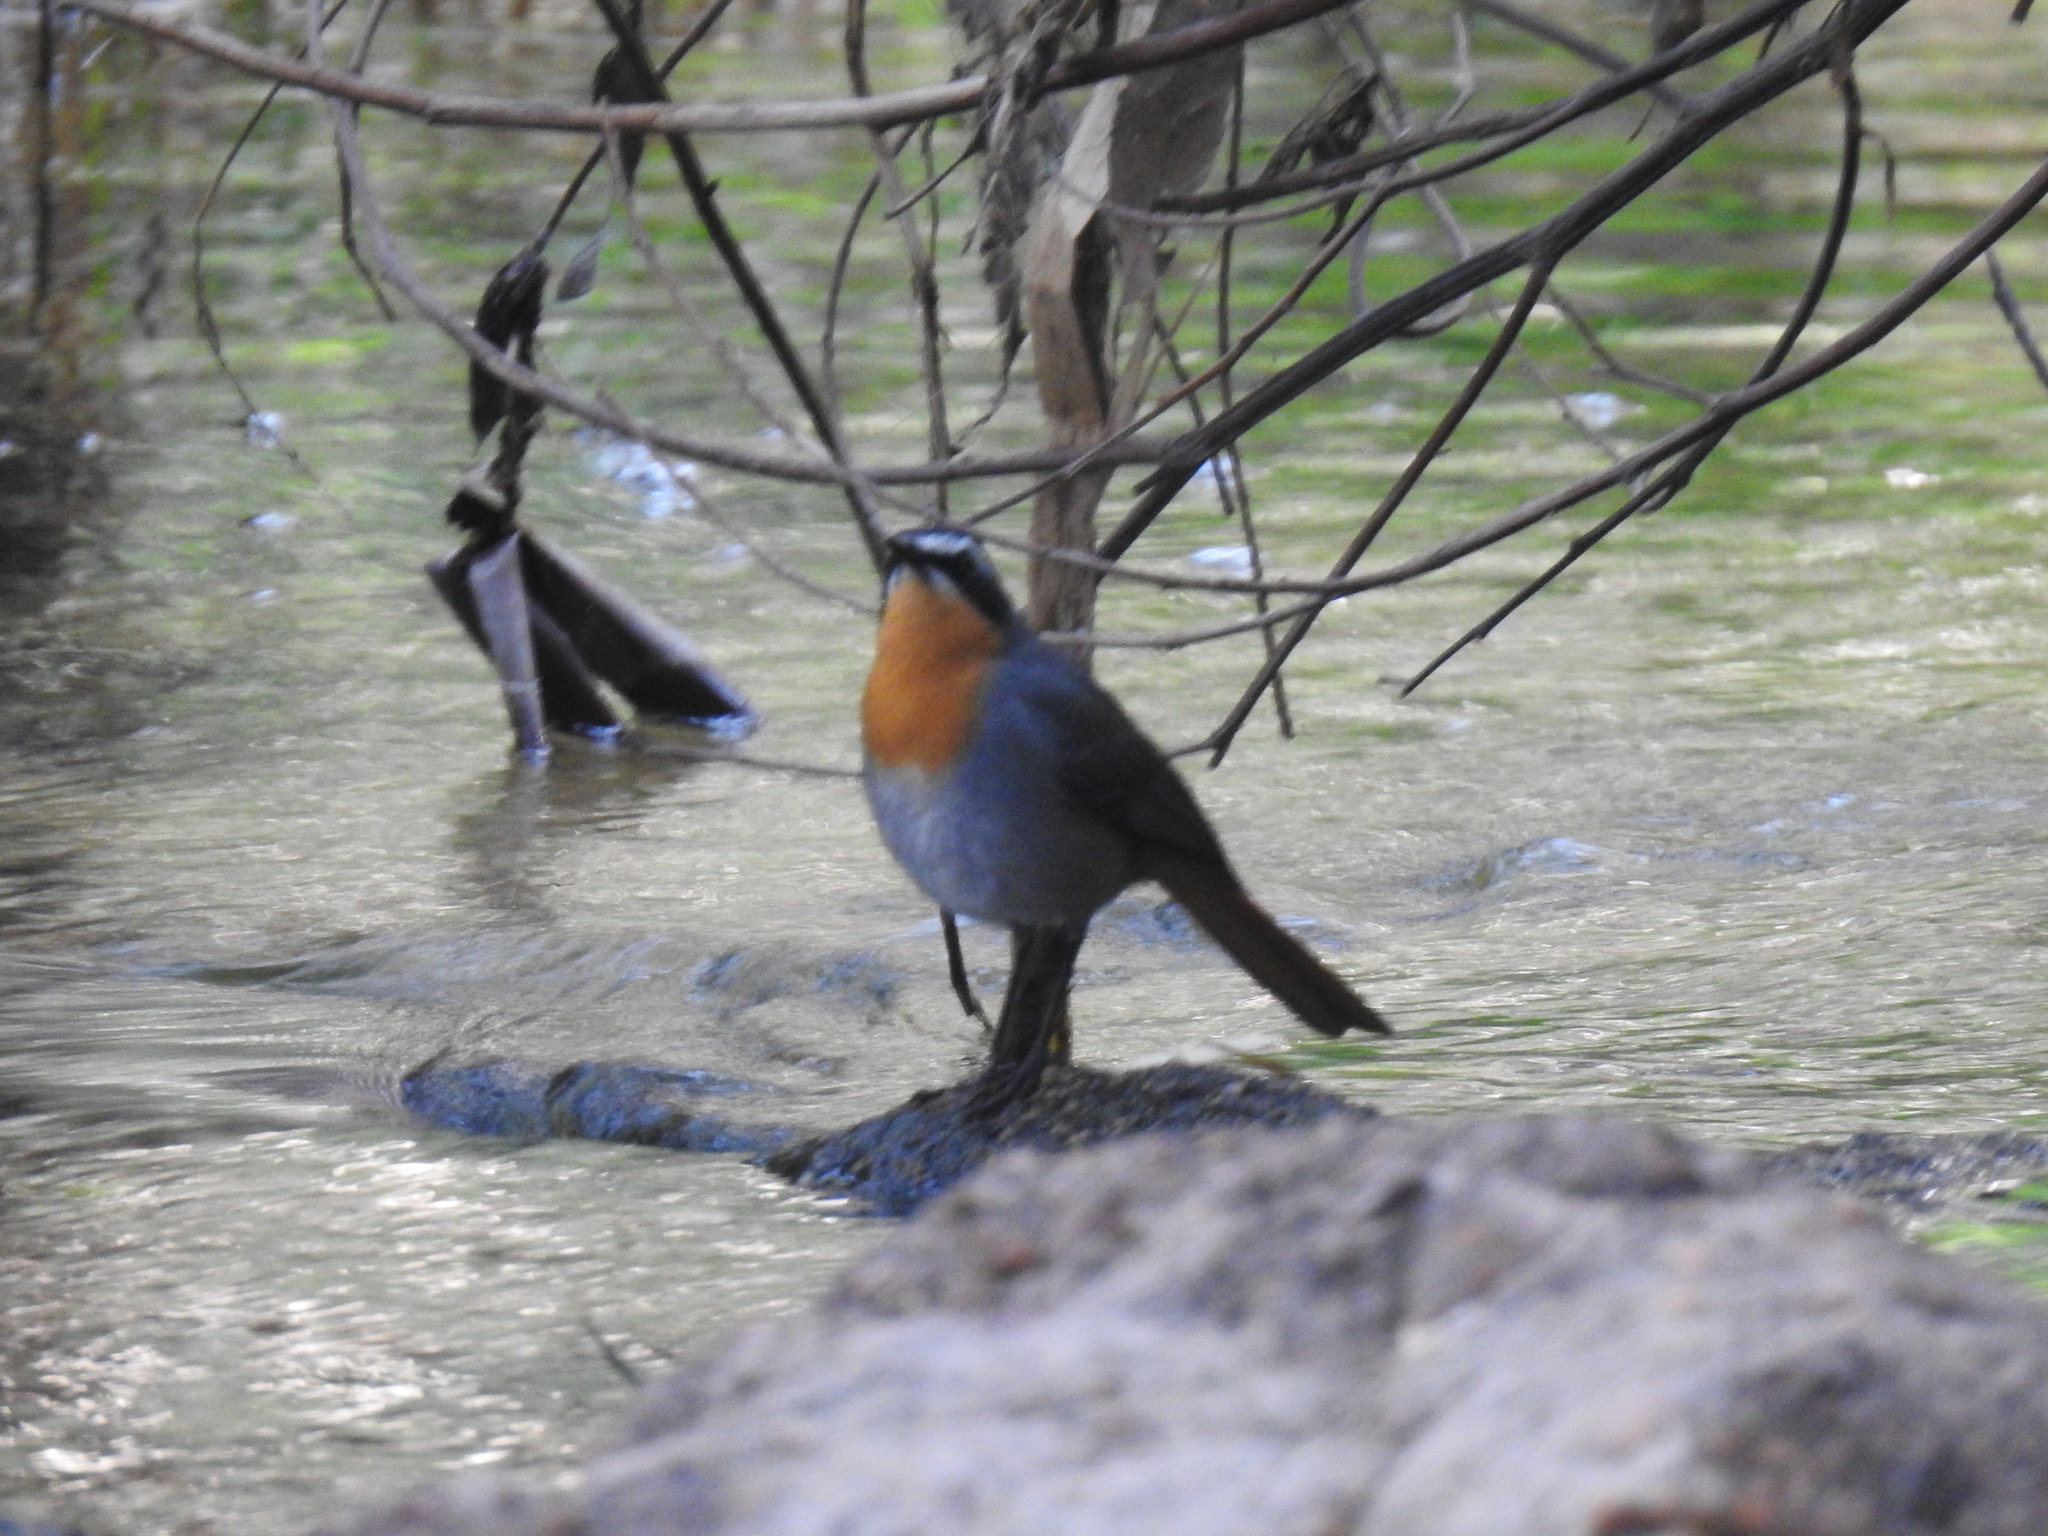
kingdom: Animalia
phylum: Chordata
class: Aves
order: Passeriformes
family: Muscicapidae
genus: Cossypha
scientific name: Cossypha caffra
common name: Cape robin-chat
